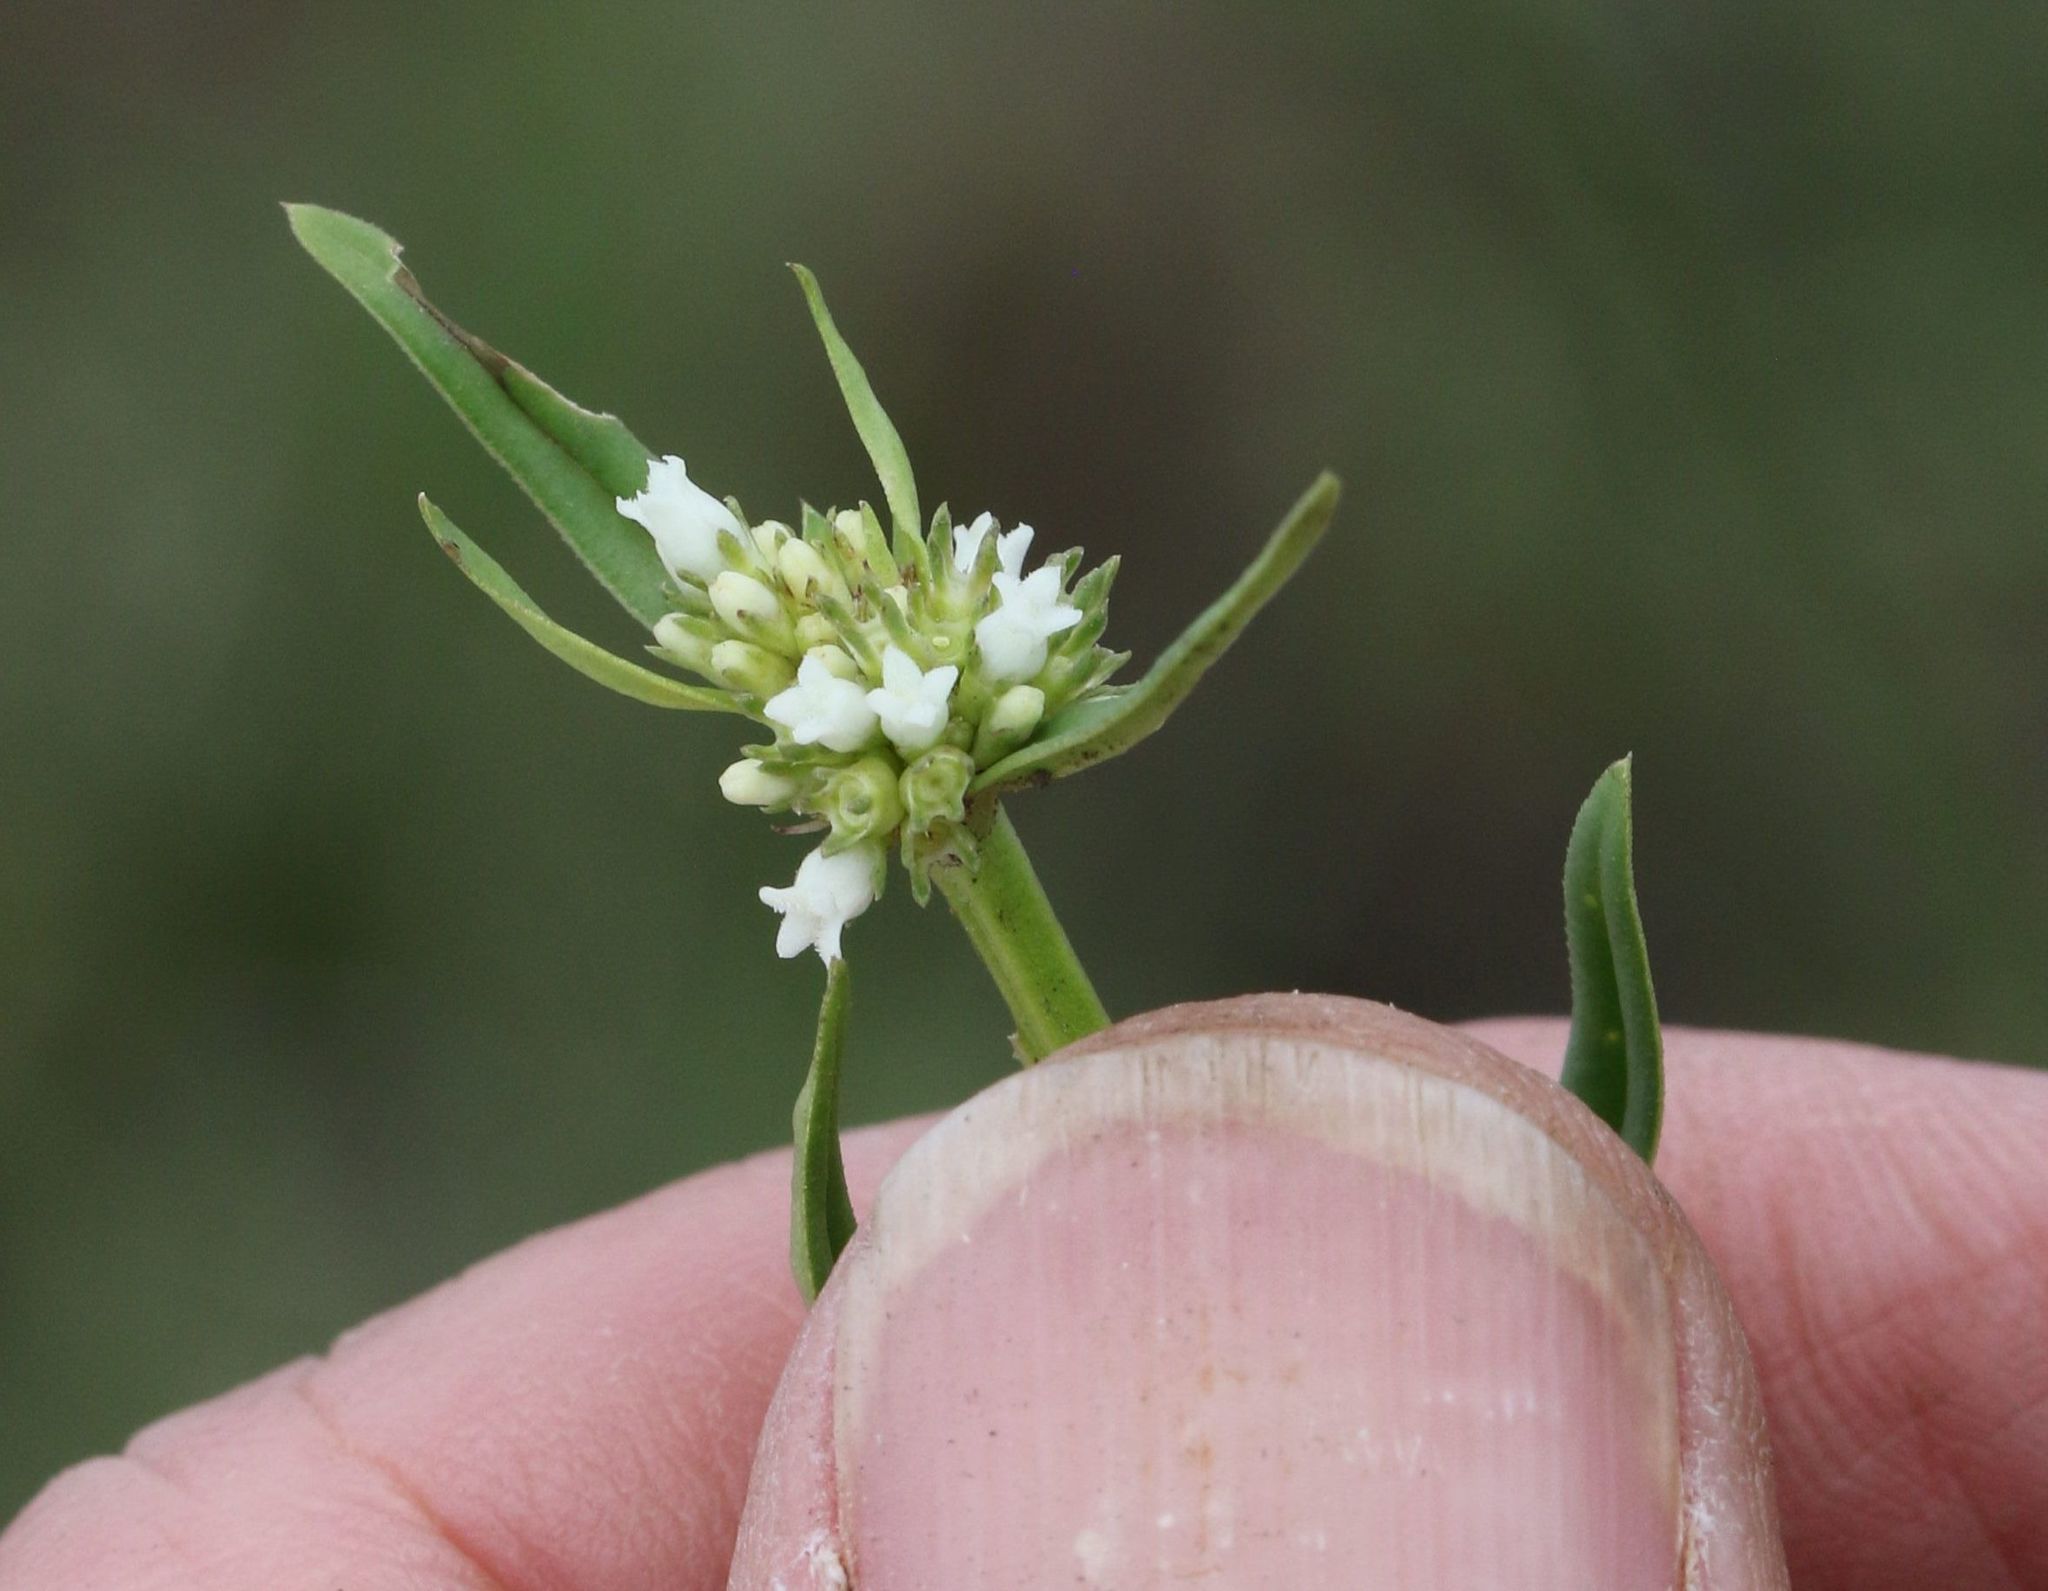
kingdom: Plantae
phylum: Tracheophyta
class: Magnoliopsida
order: Gentianales
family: Rubiaceae
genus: Spermacoce
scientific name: Spermacoce natalensis
